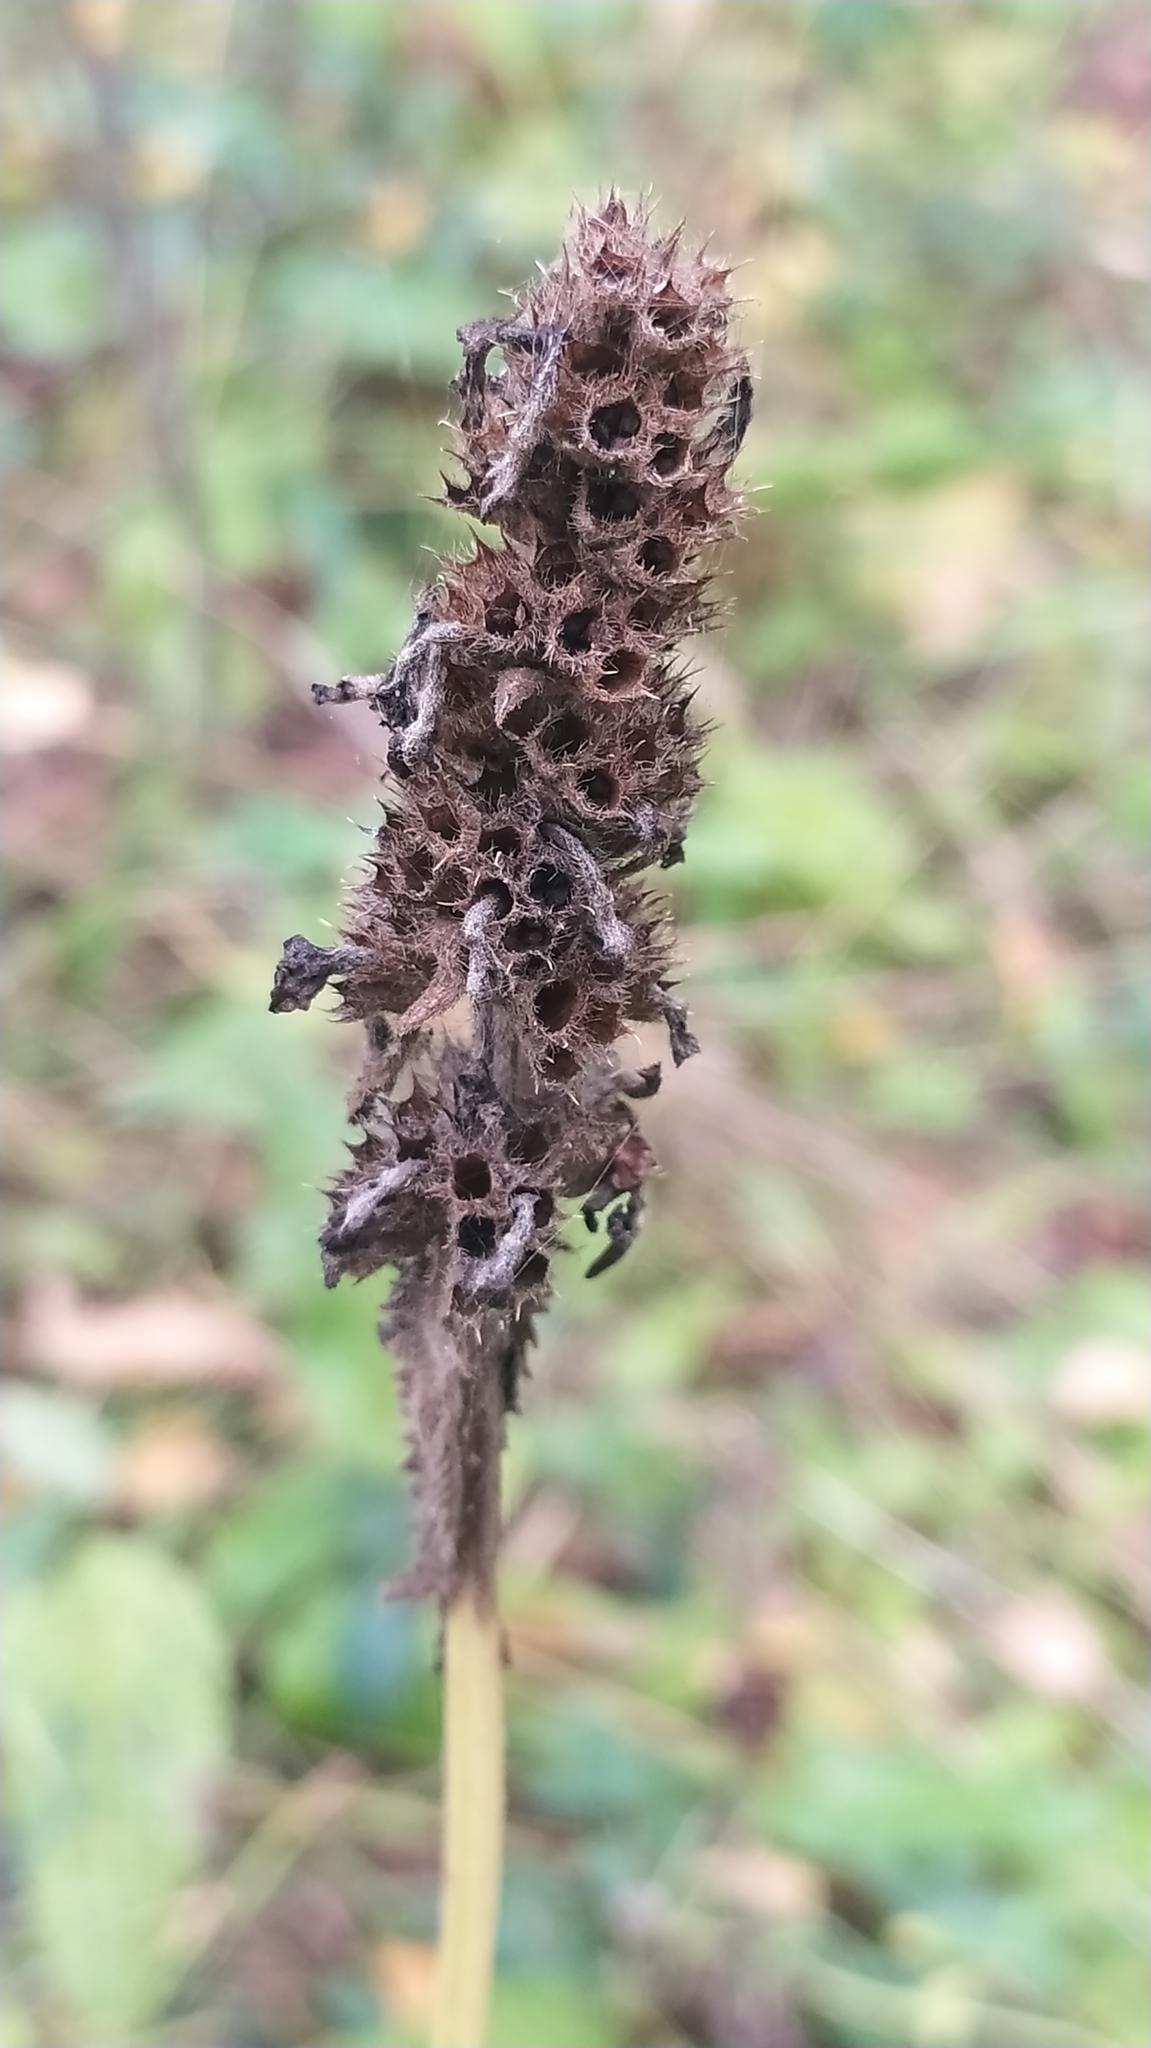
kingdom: Plantae
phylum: Tracheophyta
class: Magnoliopsida
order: Lamiales
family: Lamiaceae
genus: Betonica
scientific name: Betonica officinalis
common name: Bishop's-wort
